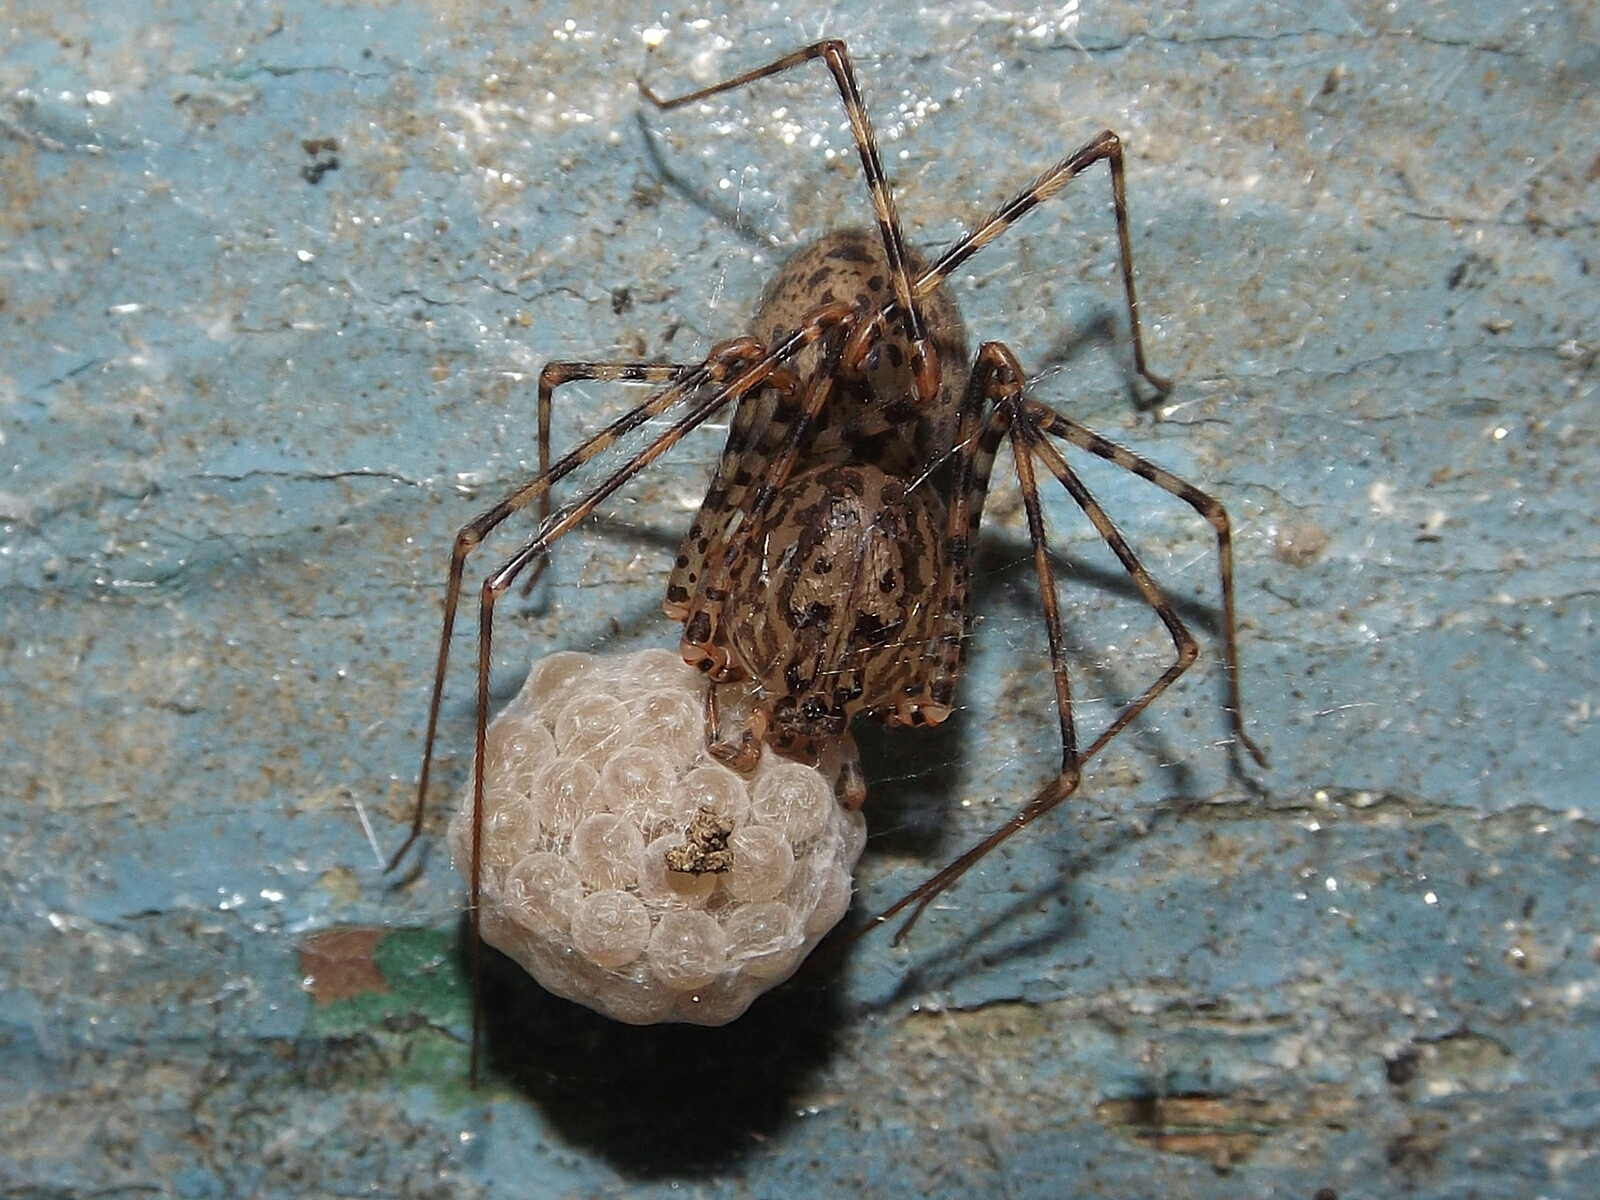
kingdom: Animalia
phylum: Arthropoda
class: Arachnida
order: Araneae
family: Scytodidae
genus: Scytodes
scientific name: Scytodes globula
